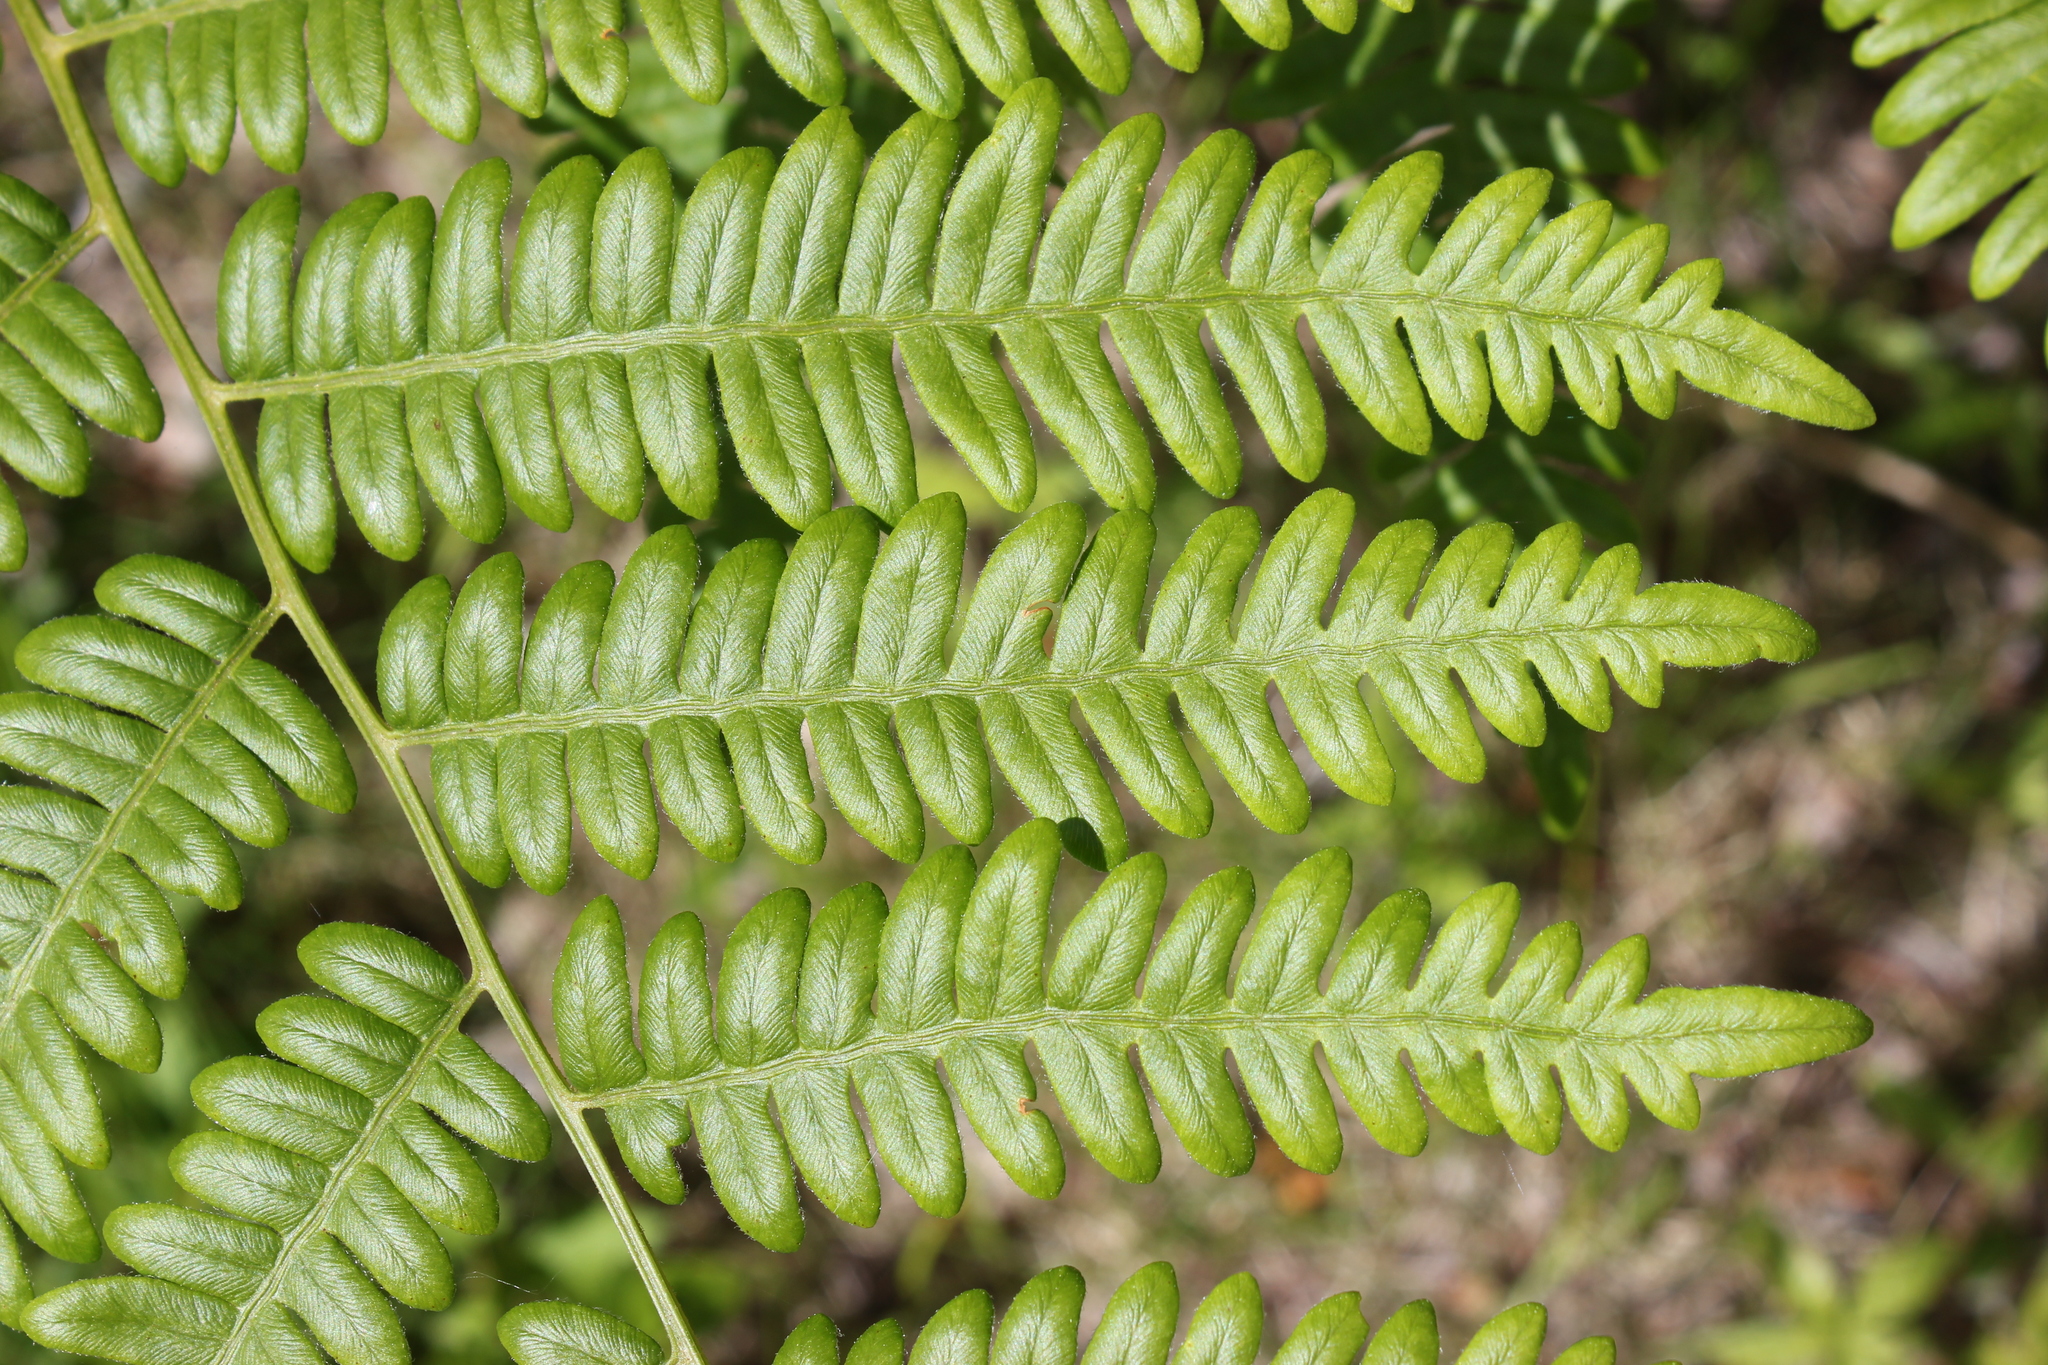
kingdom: Plantae
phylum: Tracheophyta
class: Polypodiopsida
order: Polypodiales
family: Dennstaedtiaceae
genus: Pteridium
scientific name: Pteridium aquilinum
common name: Bracken
